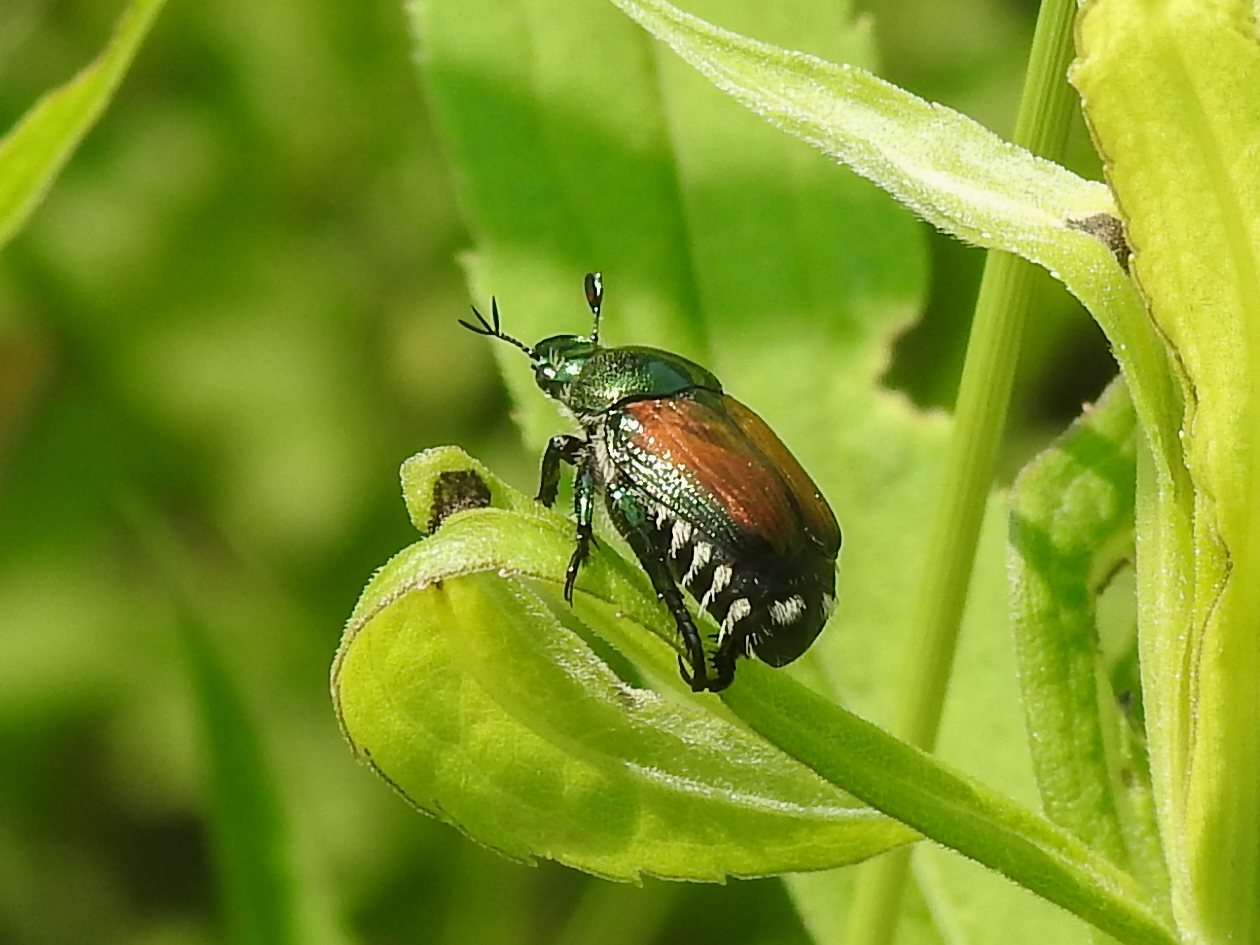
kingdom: Animalia
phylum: Arthropoda
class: Insecta
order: Coleoptera
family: Scarabaeidae
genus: Popillia
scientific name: Popillia japonica
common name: Japanese beetle
